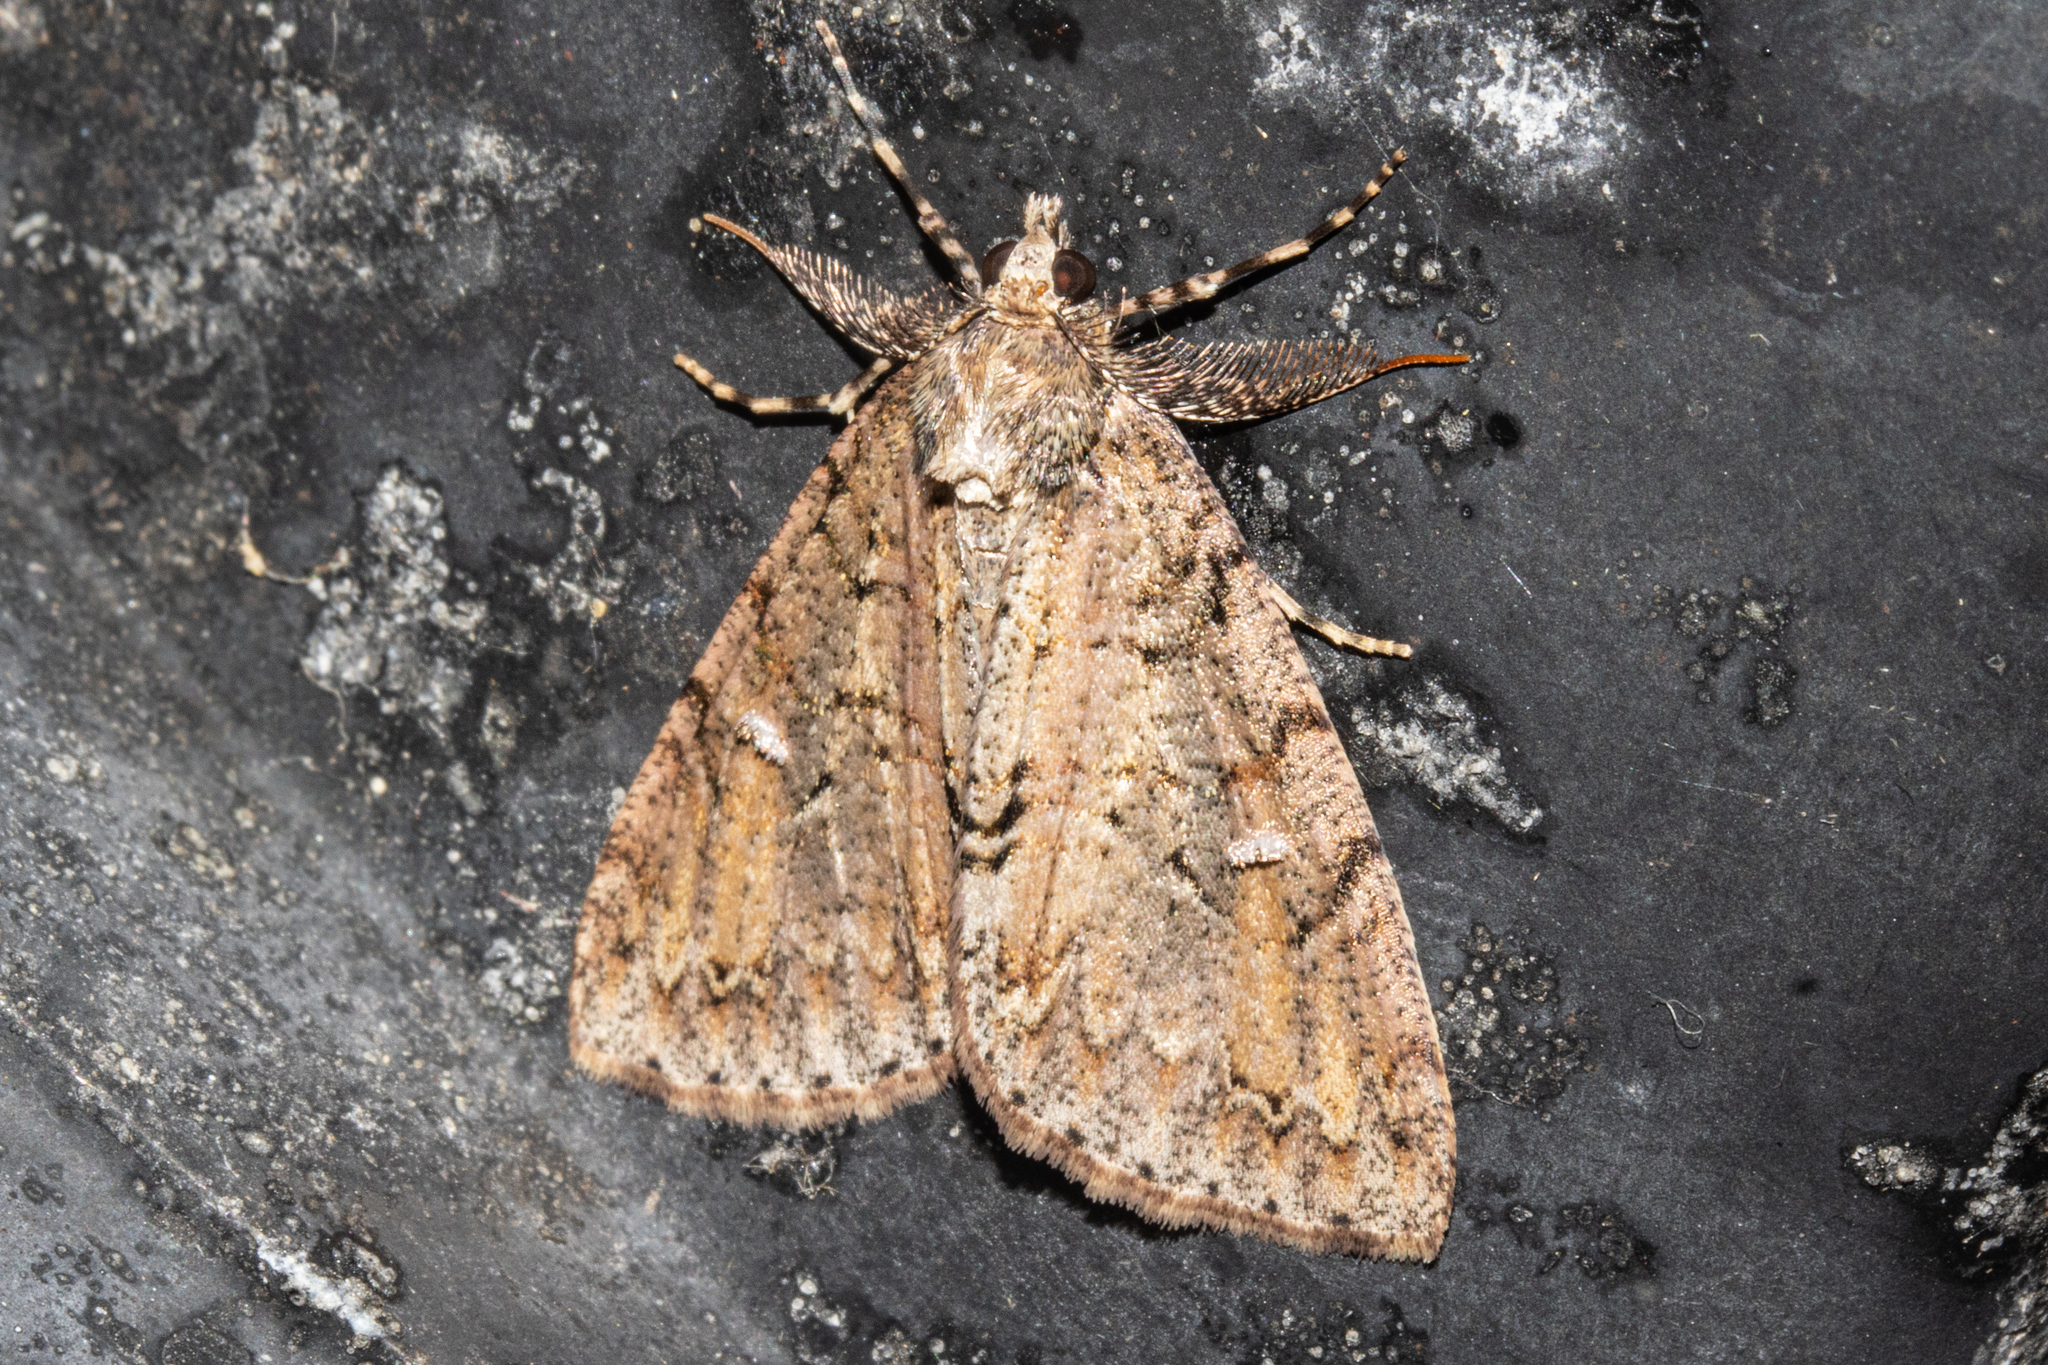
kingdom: Animalia
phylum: Arthropoda
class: Insecta
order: Lepidoptera
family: Geometridae
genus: Pseudocoremia
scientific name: Pseudocoremia suavis
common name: Common forest looper
